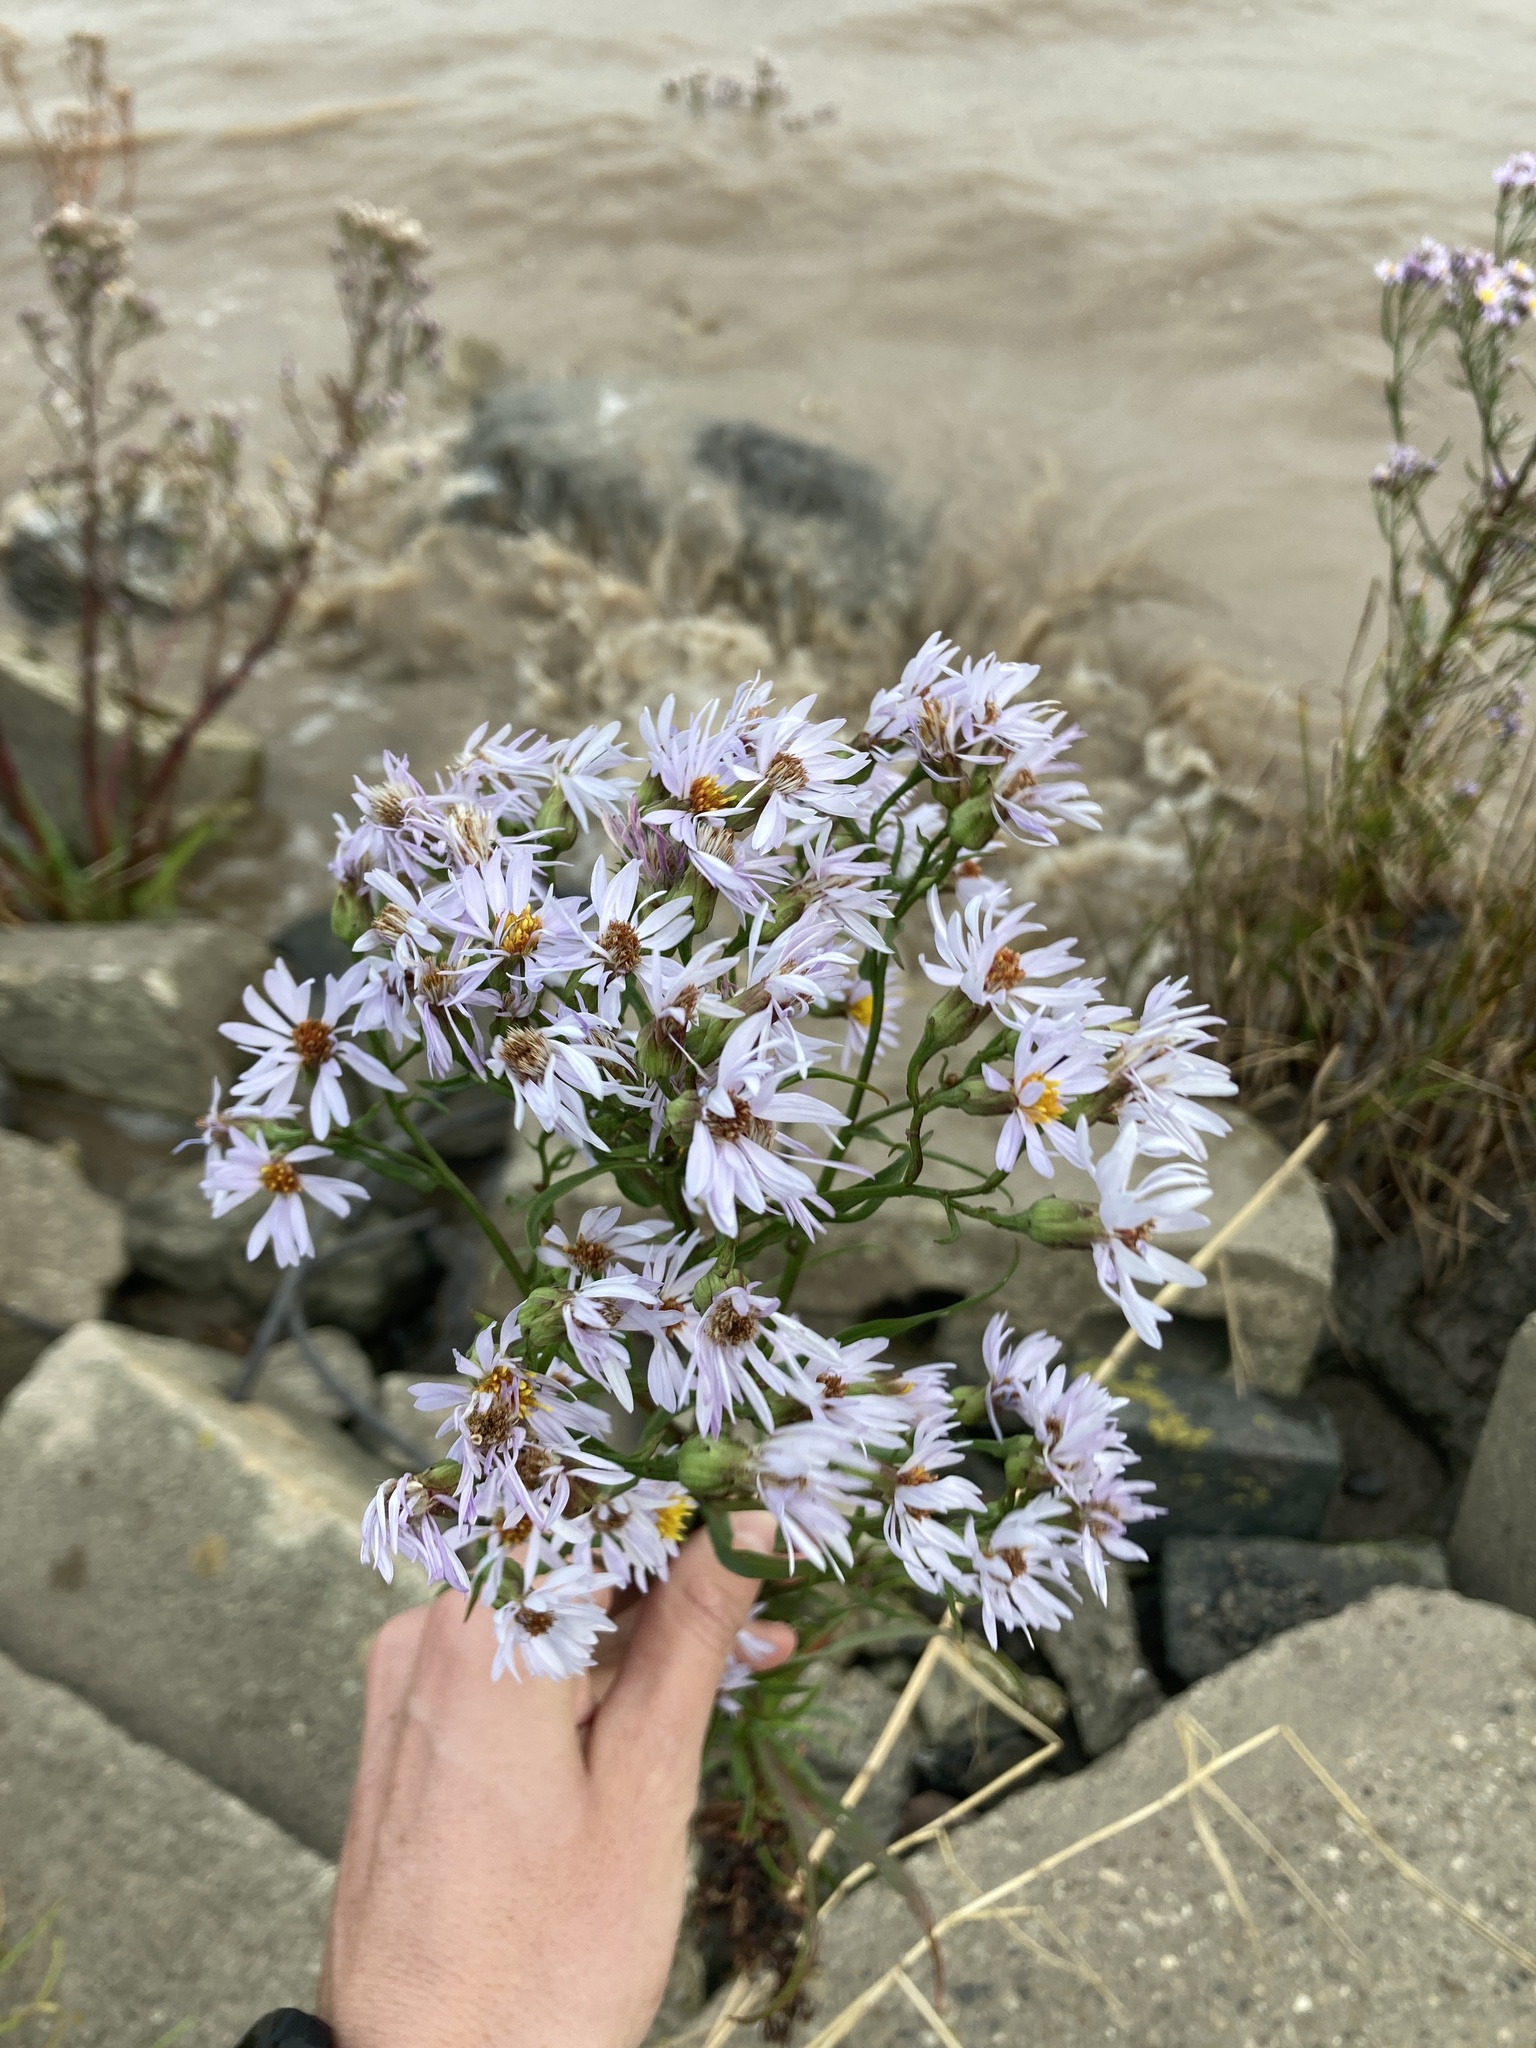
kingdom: Plantae
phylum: Tracheophyta
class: Magnoliopsida
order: Asterales
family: Asteraceae
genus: Tripolium
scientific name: Tripolium pannonicum
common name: Sea aster
